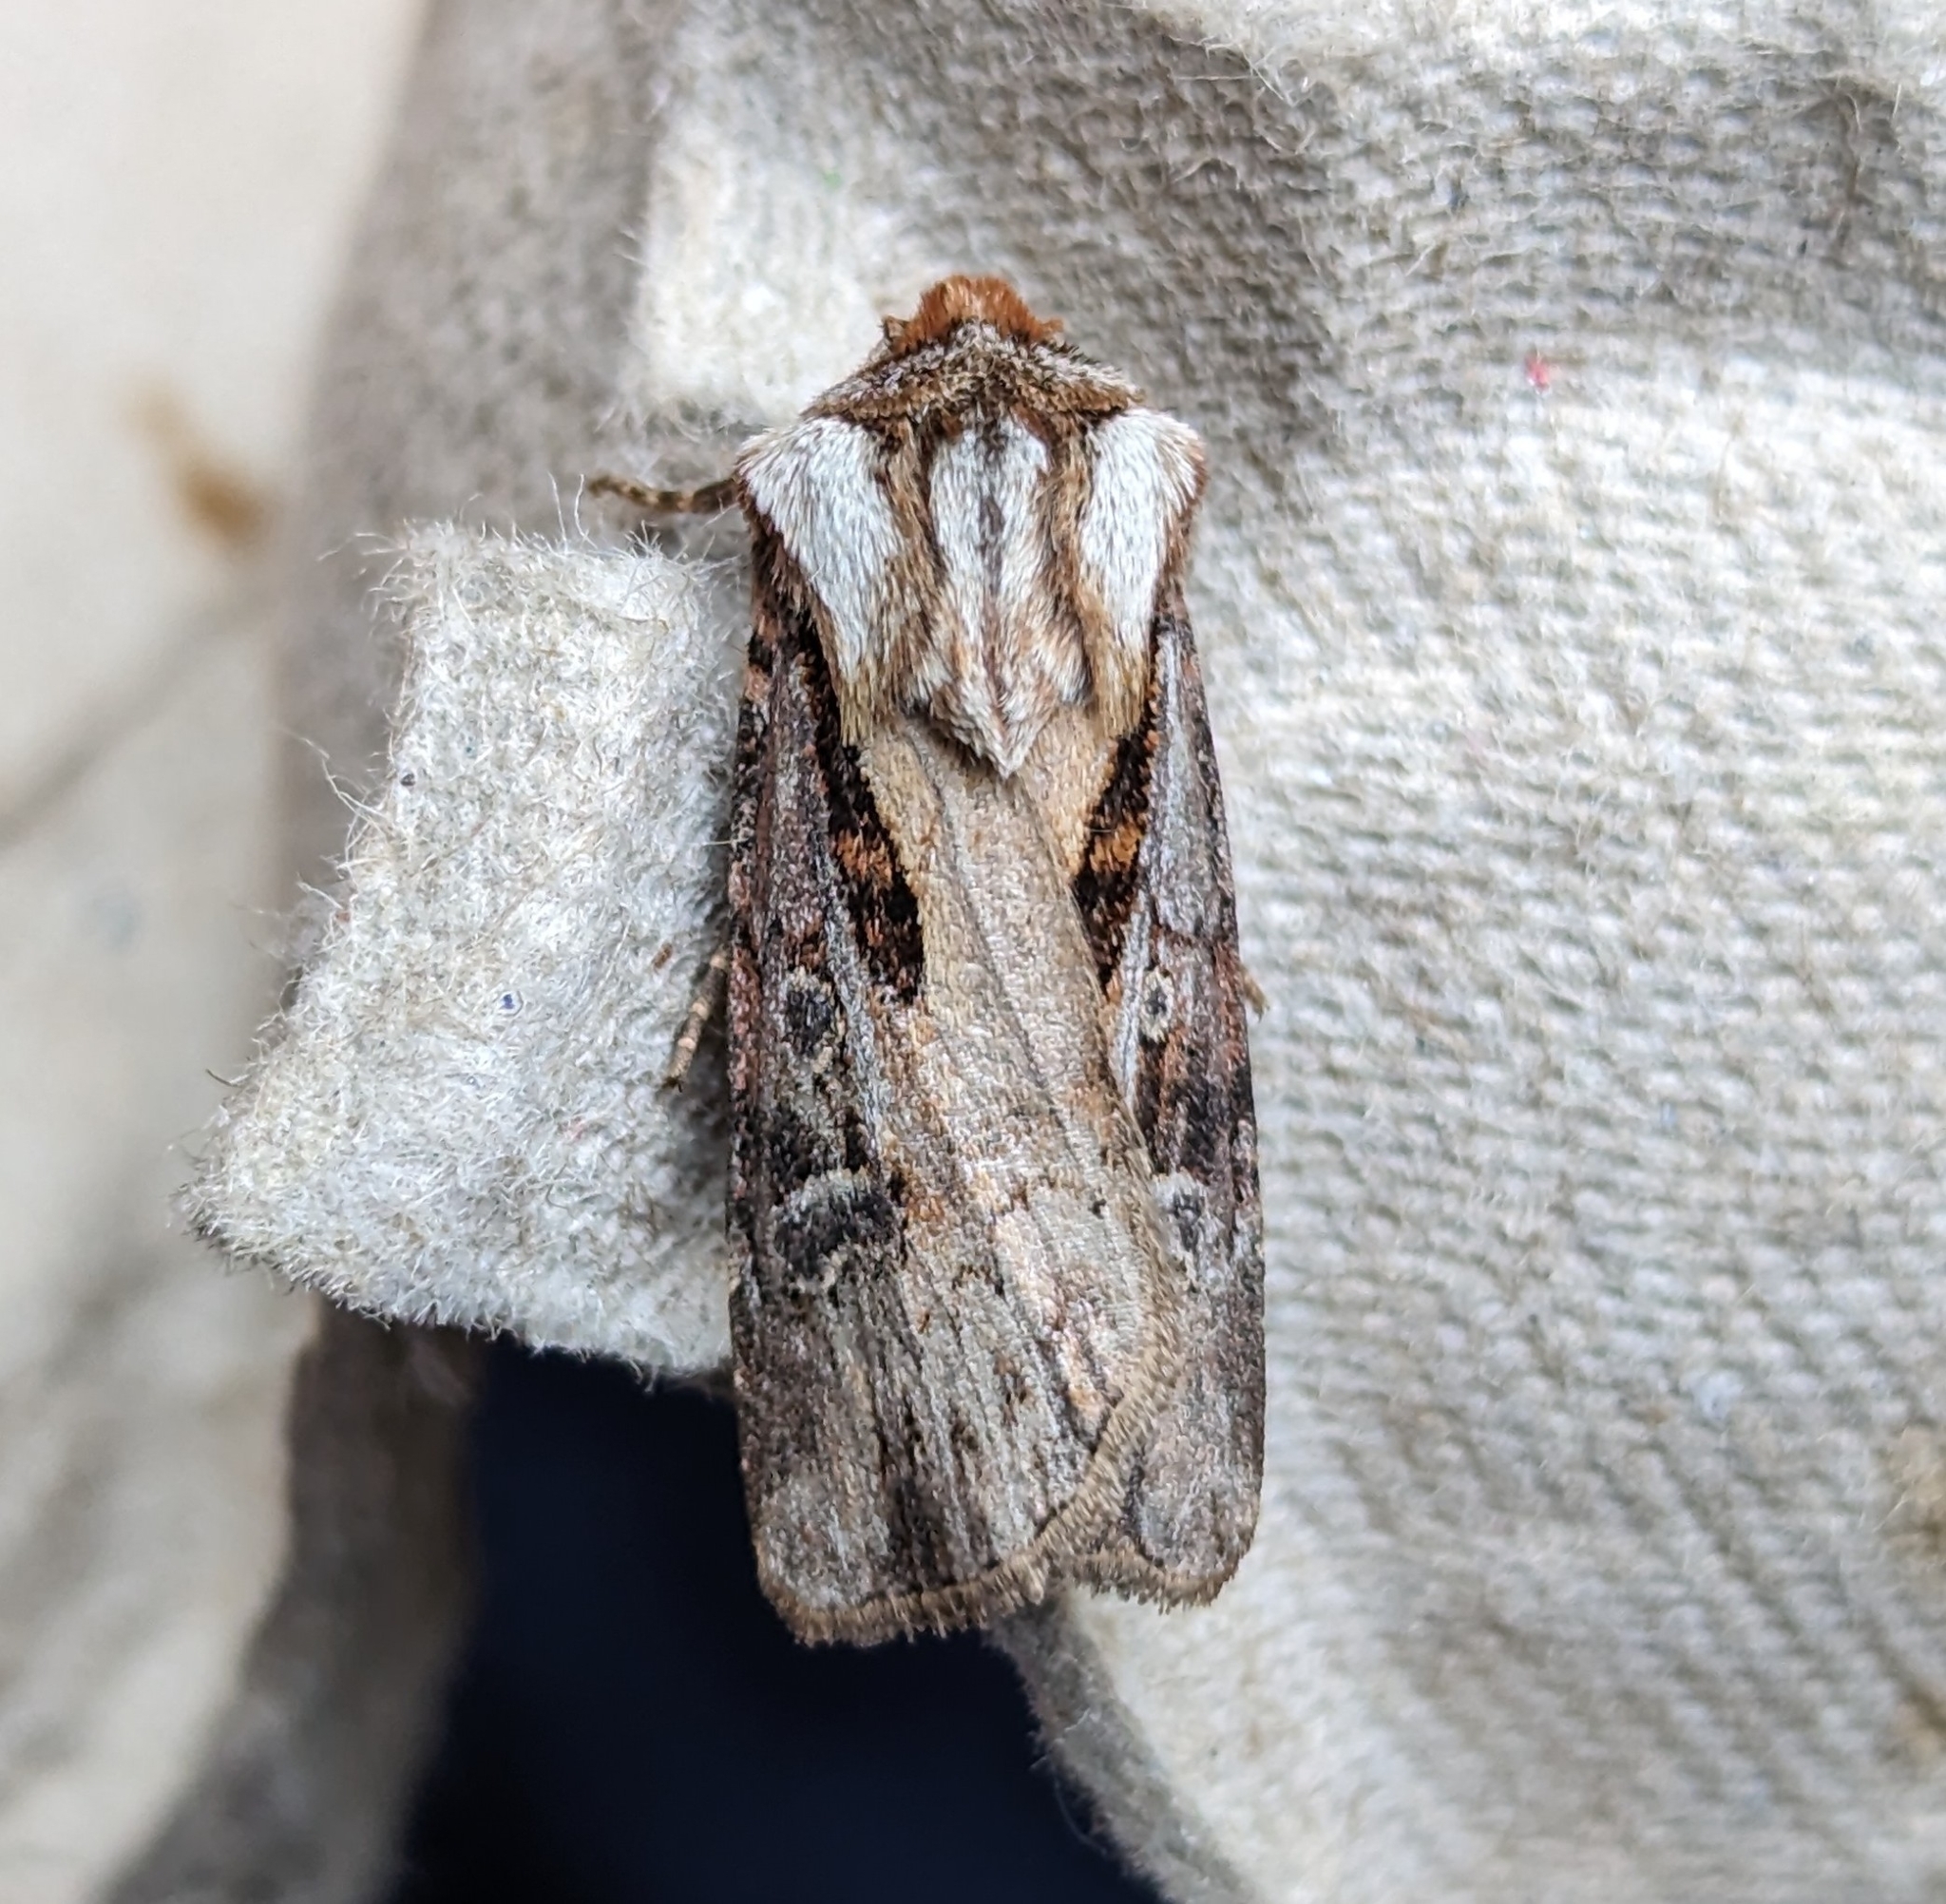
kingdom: Animalia
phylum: Arthropoda
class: Insecta
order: Lepidoptera
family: Noctuidae
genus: Agrotis
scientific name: Agrotis vancouverensis
